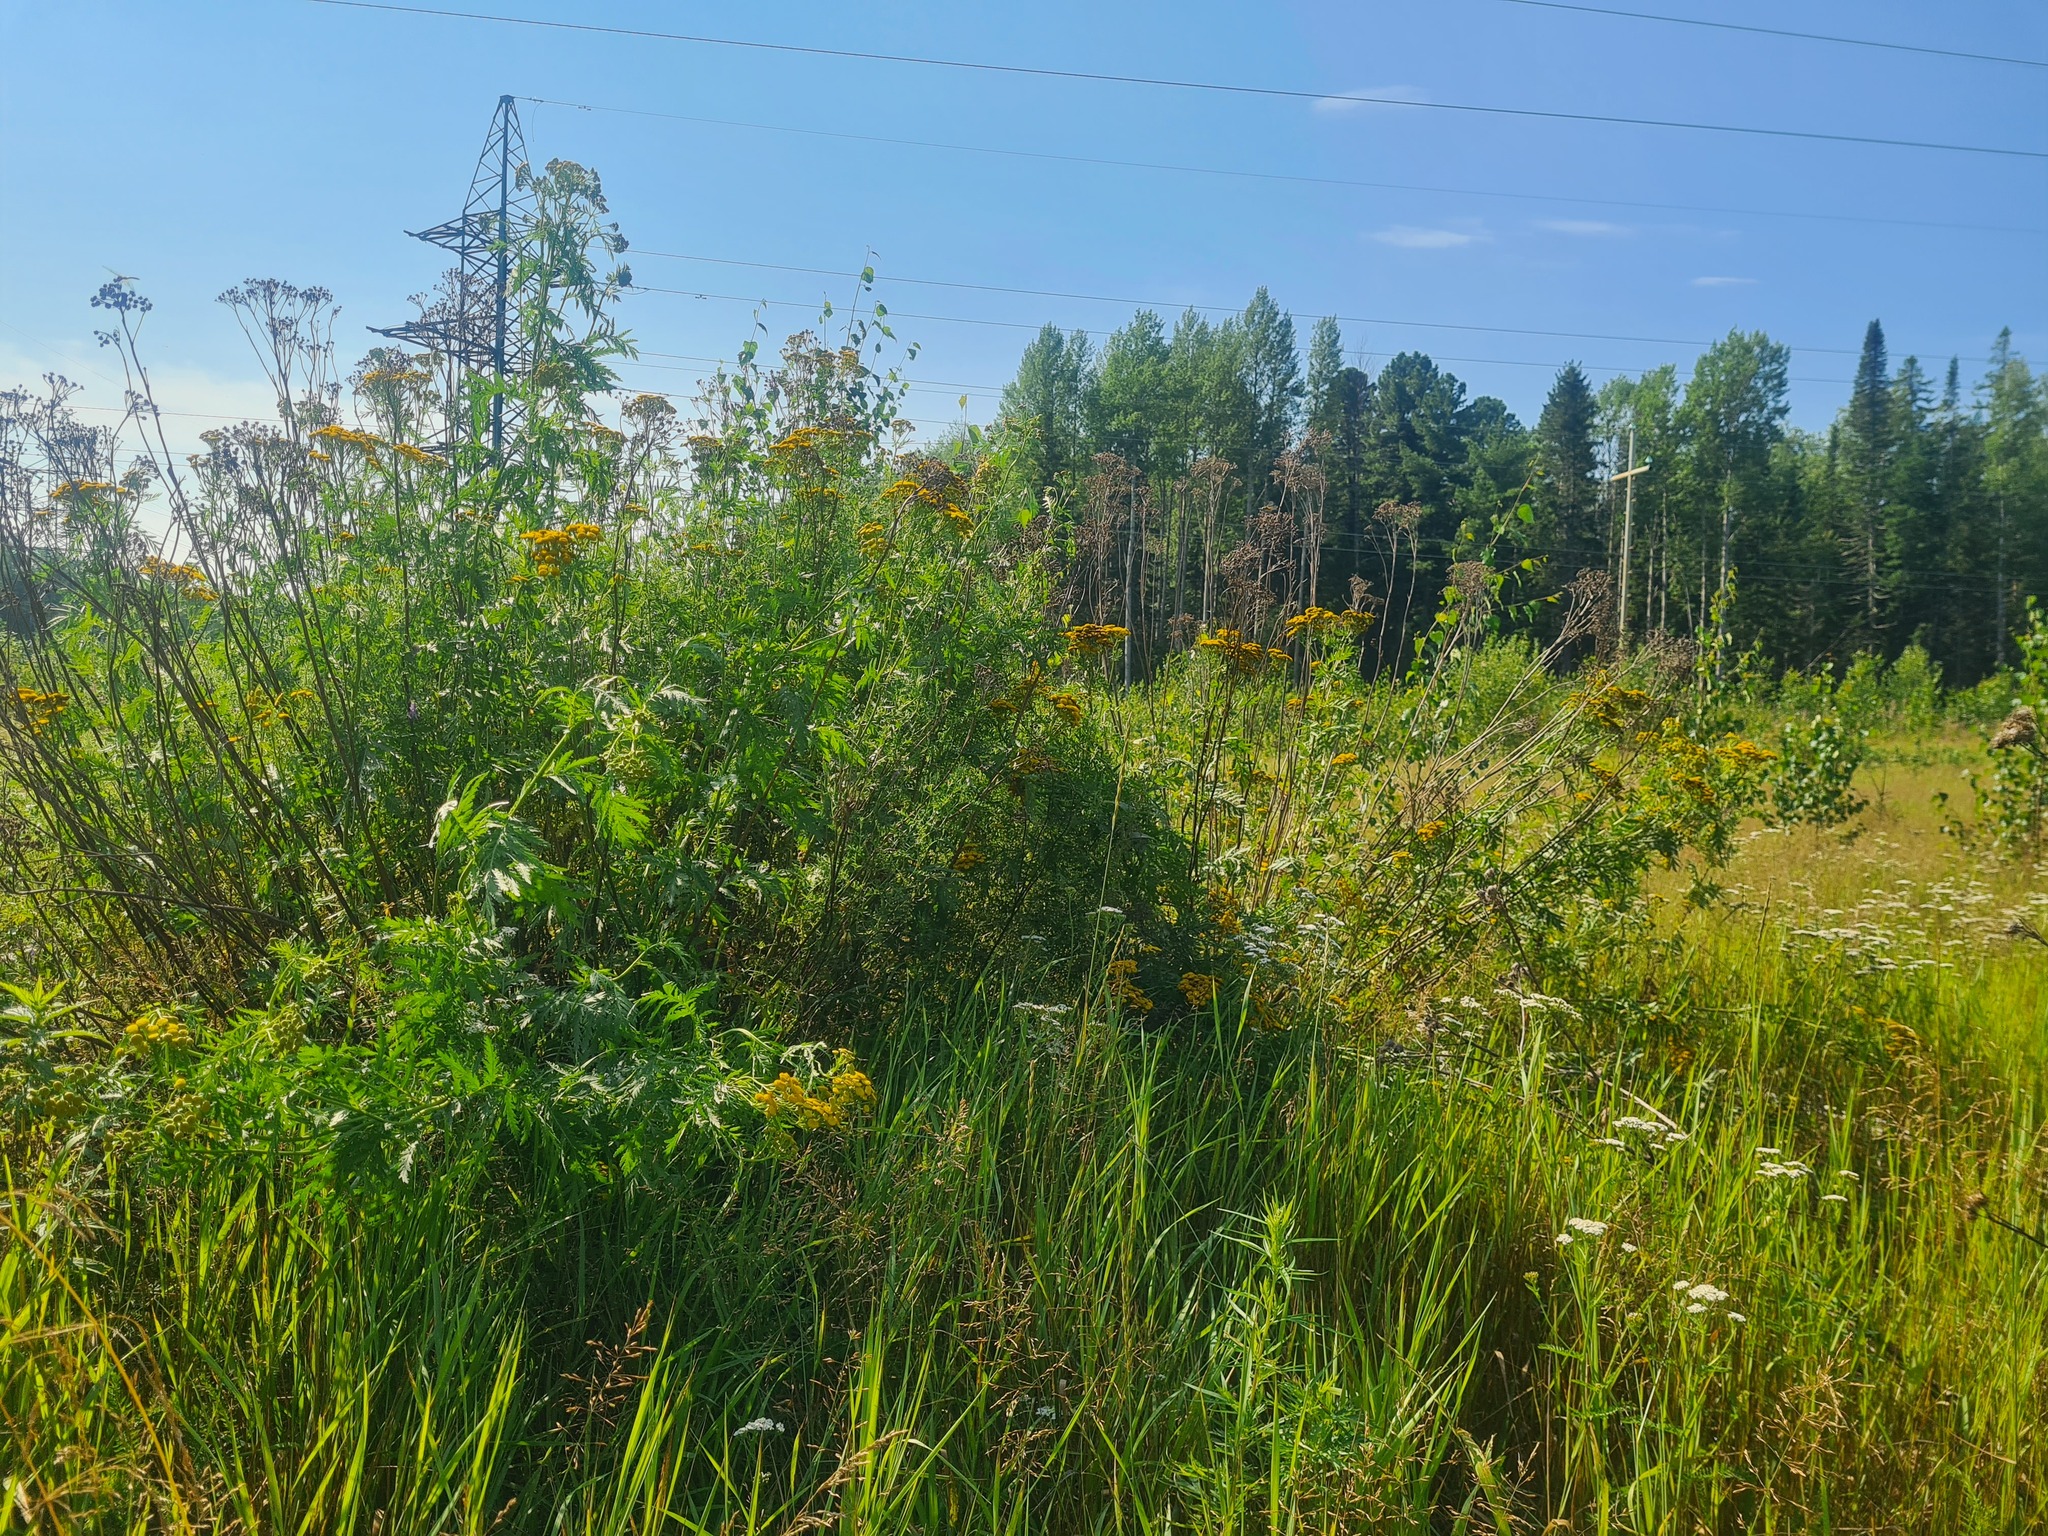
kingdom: Plantae
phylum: Tracheophyta
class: Magnoliopsida
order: Asterales
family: Asteraceae
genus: Tanacetum
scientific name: Tanacetum vulgare
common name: Common tansy
